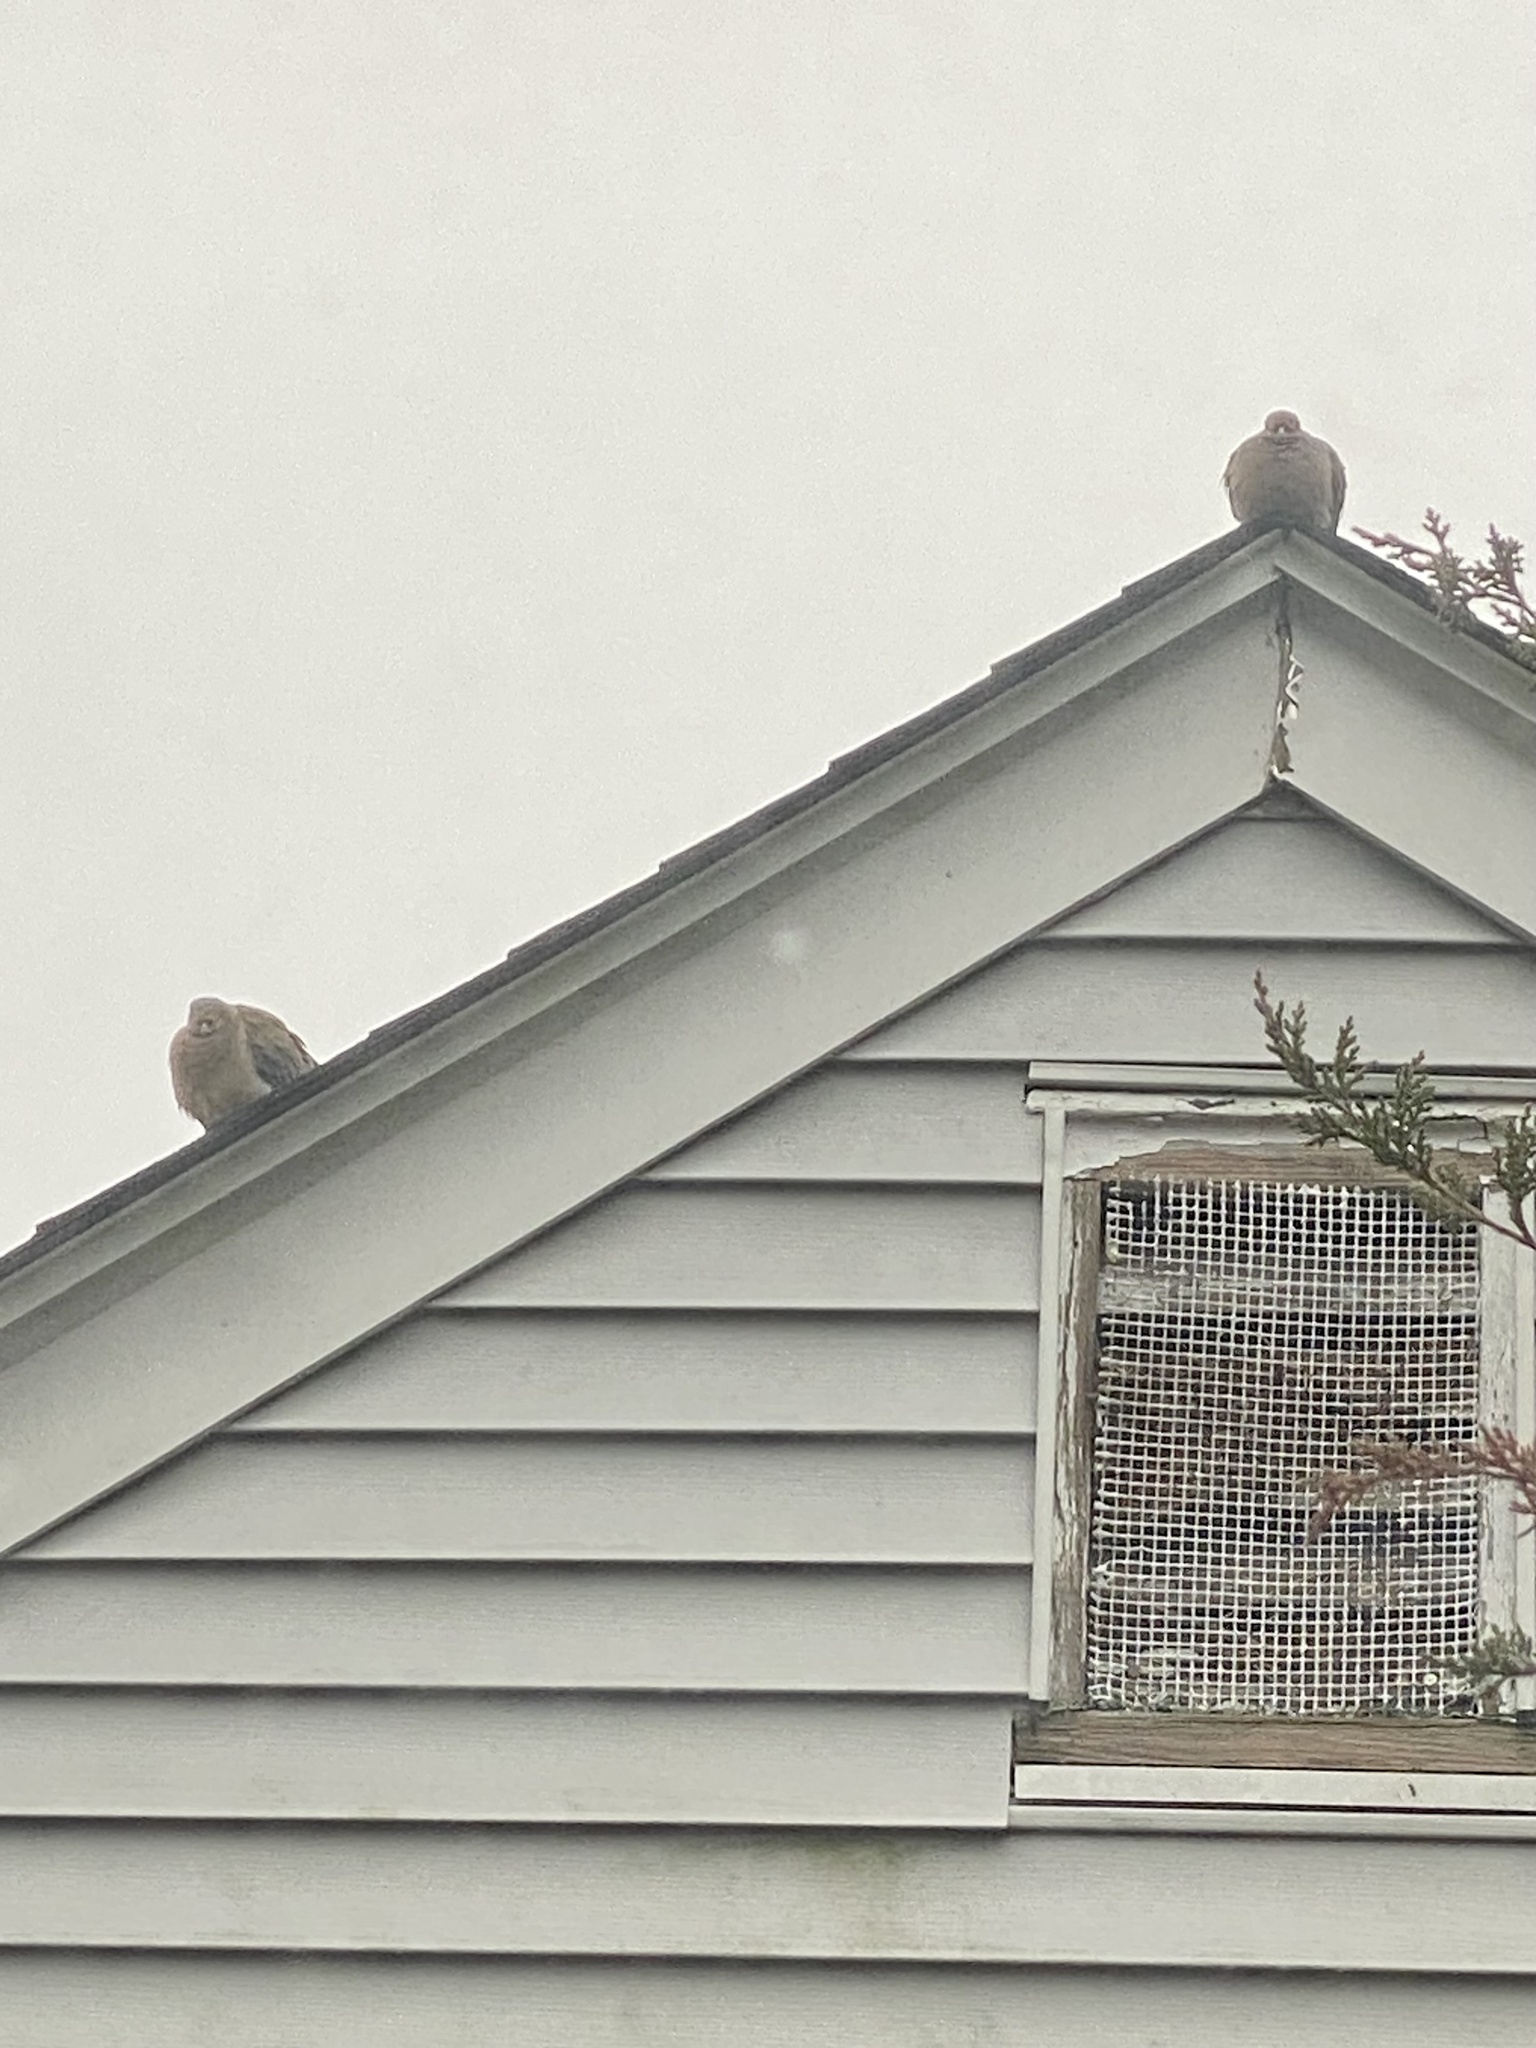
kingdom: Animalia
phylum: Chordata
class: Aves
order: Columbiformes
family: Columbidae
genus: Zenaida
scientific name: Zenaida macroura
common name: Mourning dove
